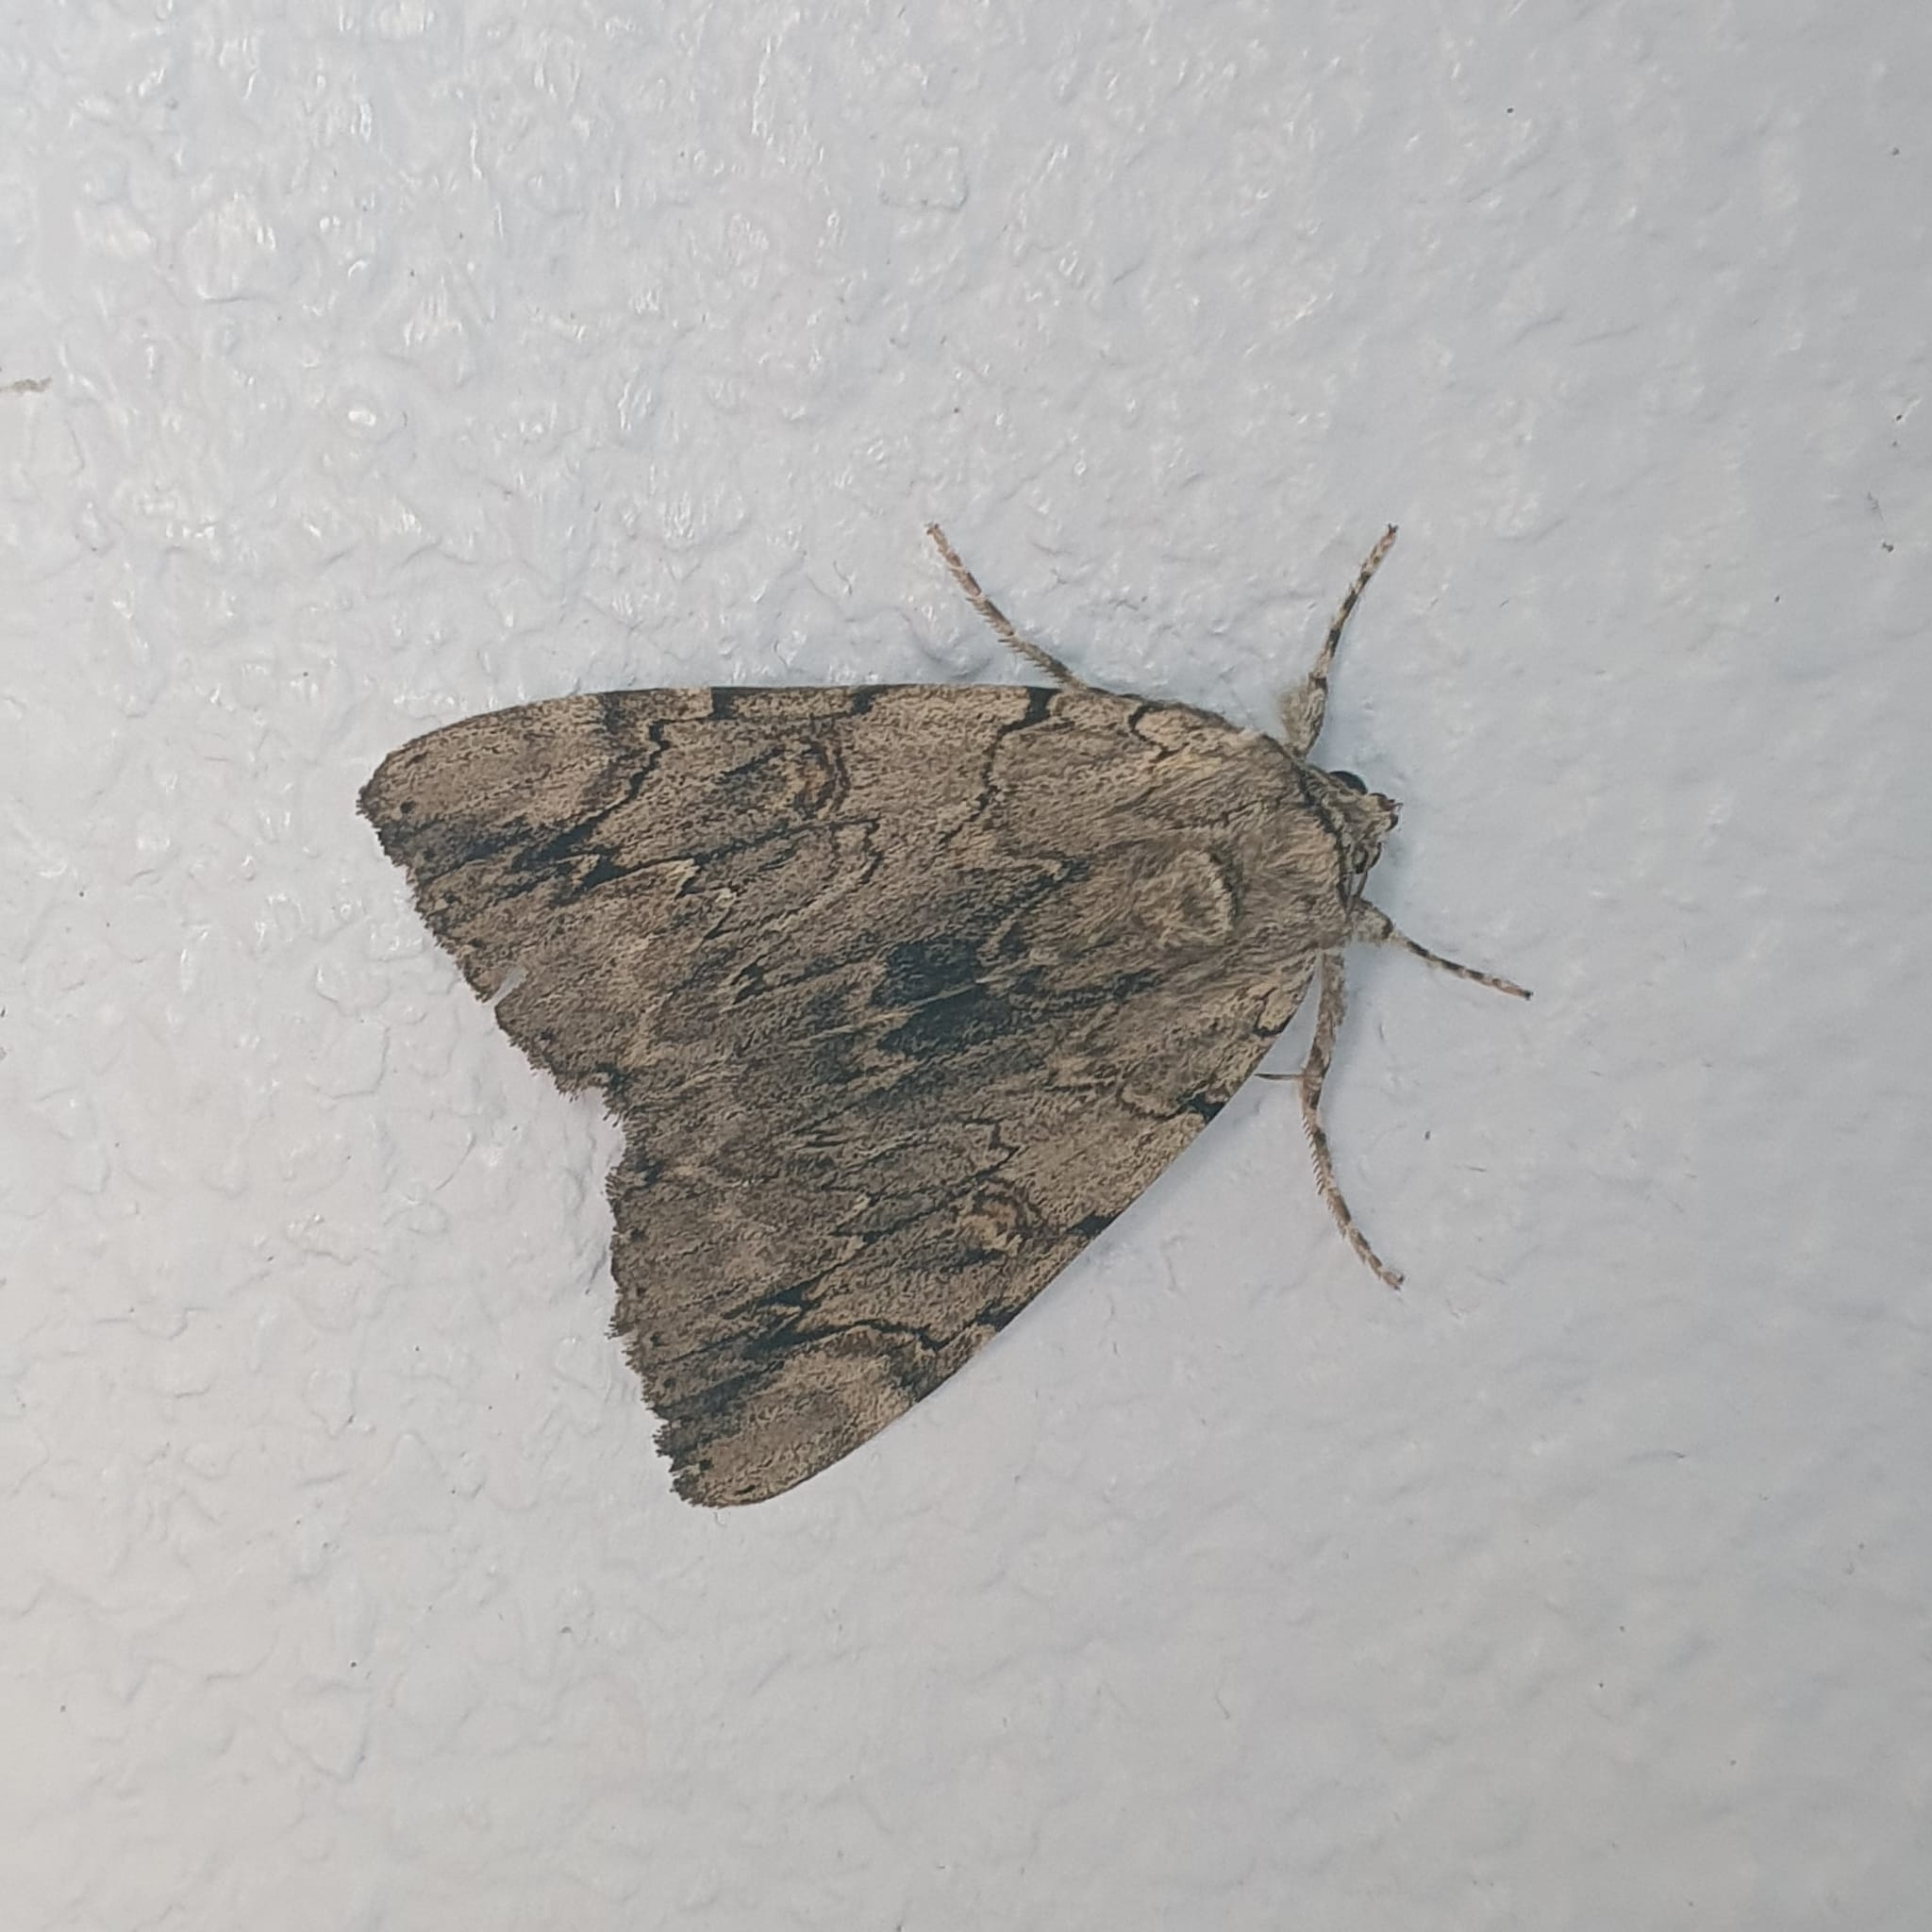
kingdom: Animalia
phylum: Arthropoda
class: Insecta
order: Lepidoptera
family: Erebidae
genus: Catocala
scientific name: Catocala electa
